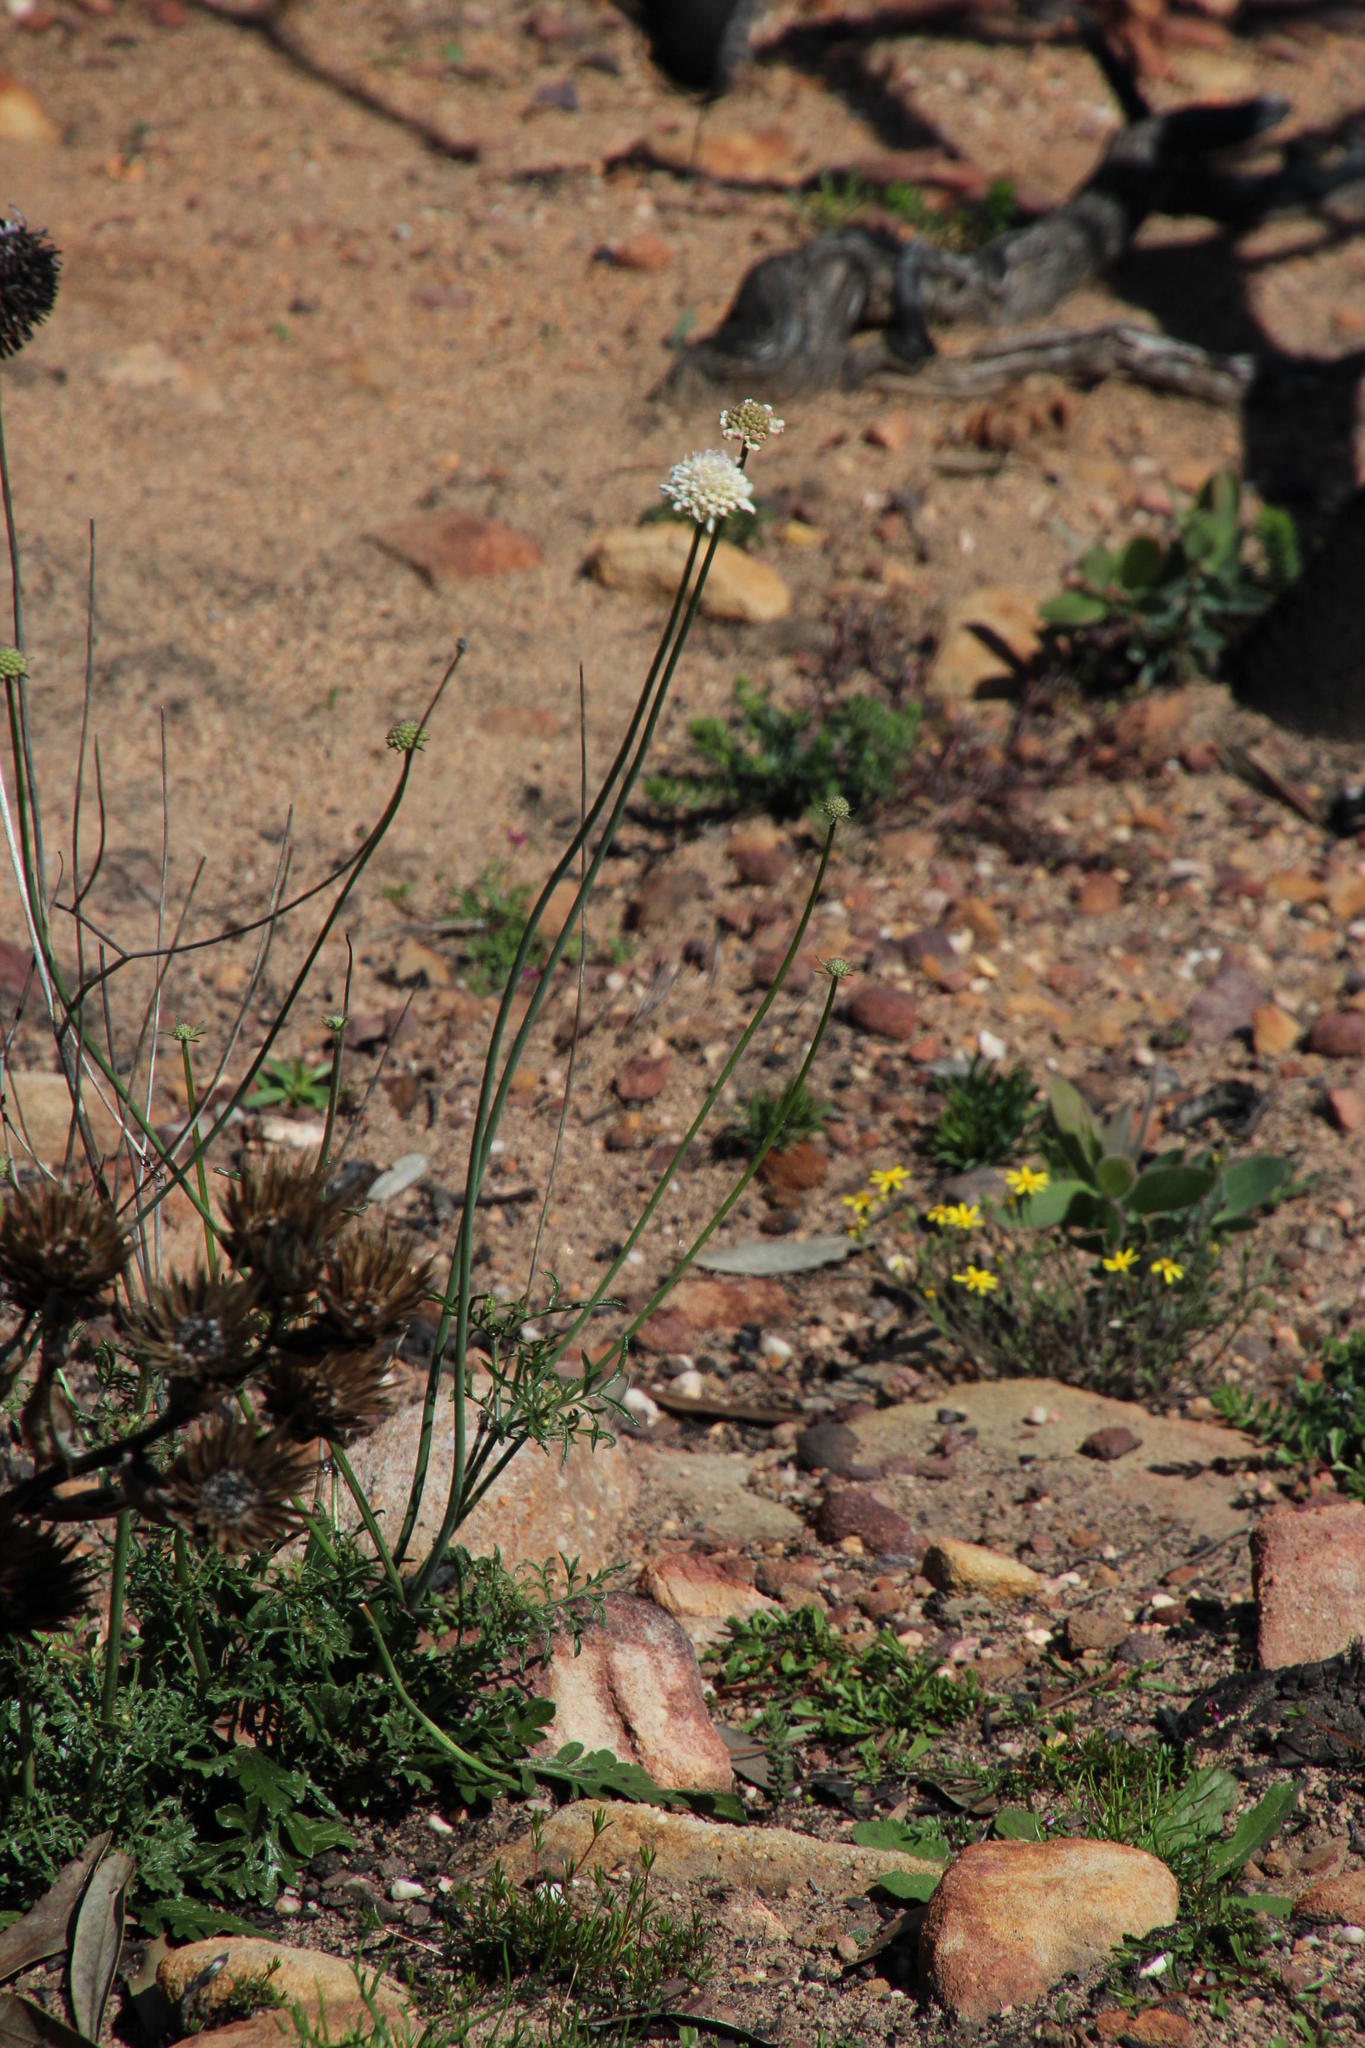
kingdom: Plantae
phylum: Tracheophyta
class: Magnoliopsida
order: Dipsacales
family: Caprifoliaceae
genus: Scabiosa
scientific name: Scabiosa columbaria
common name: Small scabious
